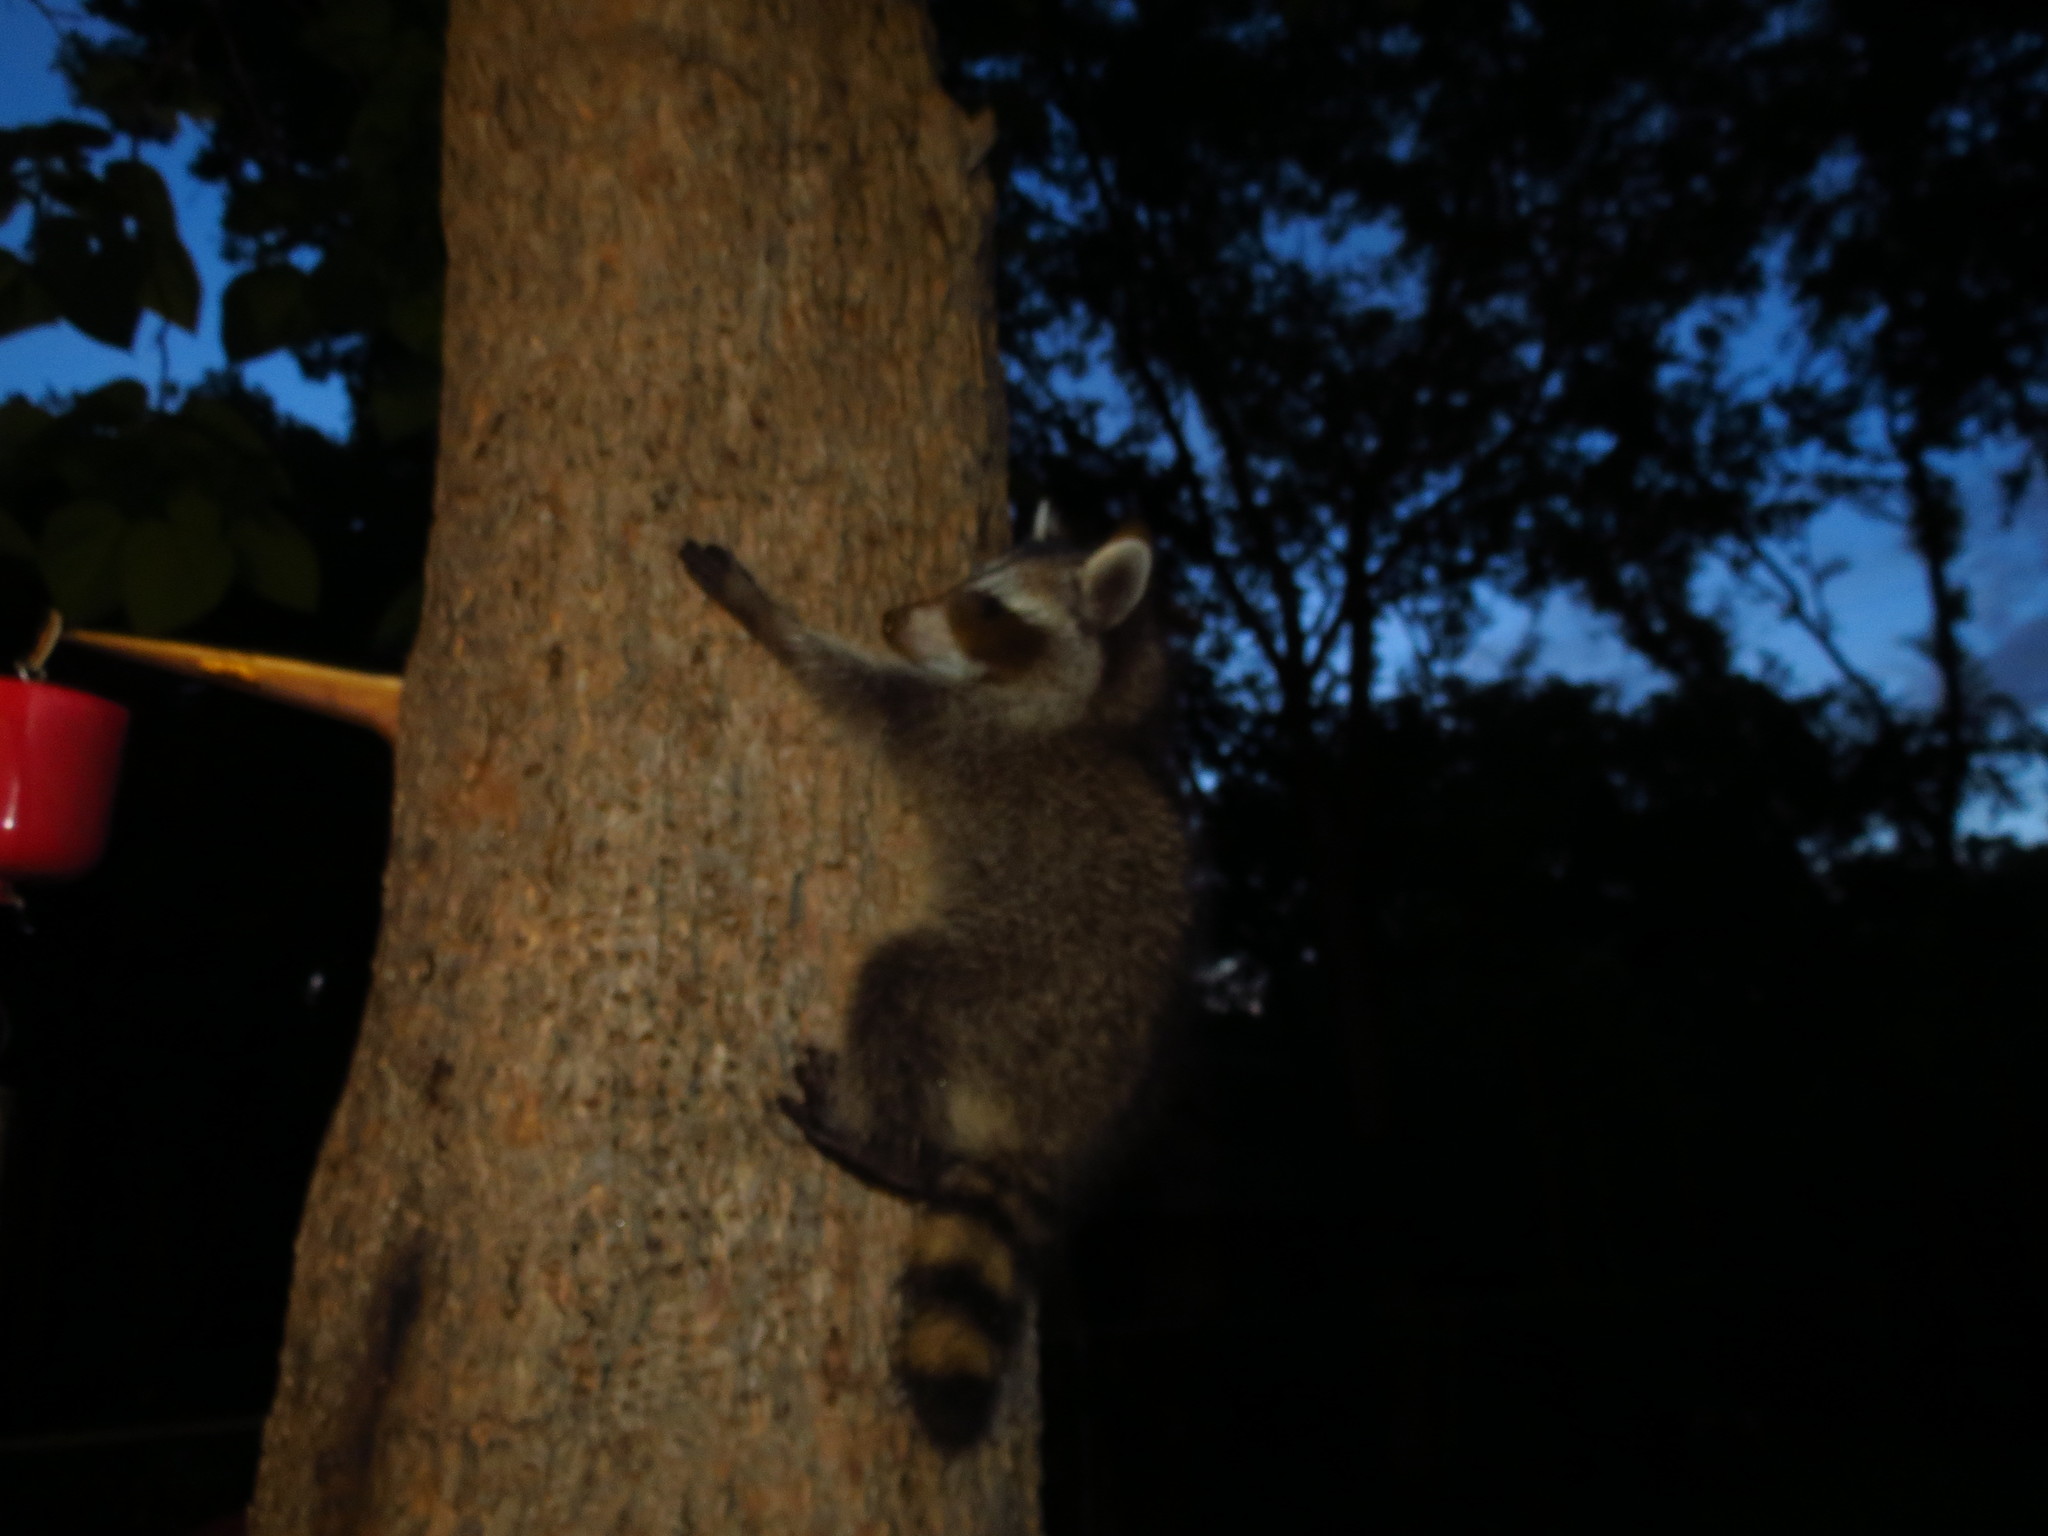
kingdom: Animalia
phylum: Chordata
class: Mammalia
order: Carnivora
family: Procyonidae
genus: Procyon
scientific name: Procyon lotor
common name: Raccoon
